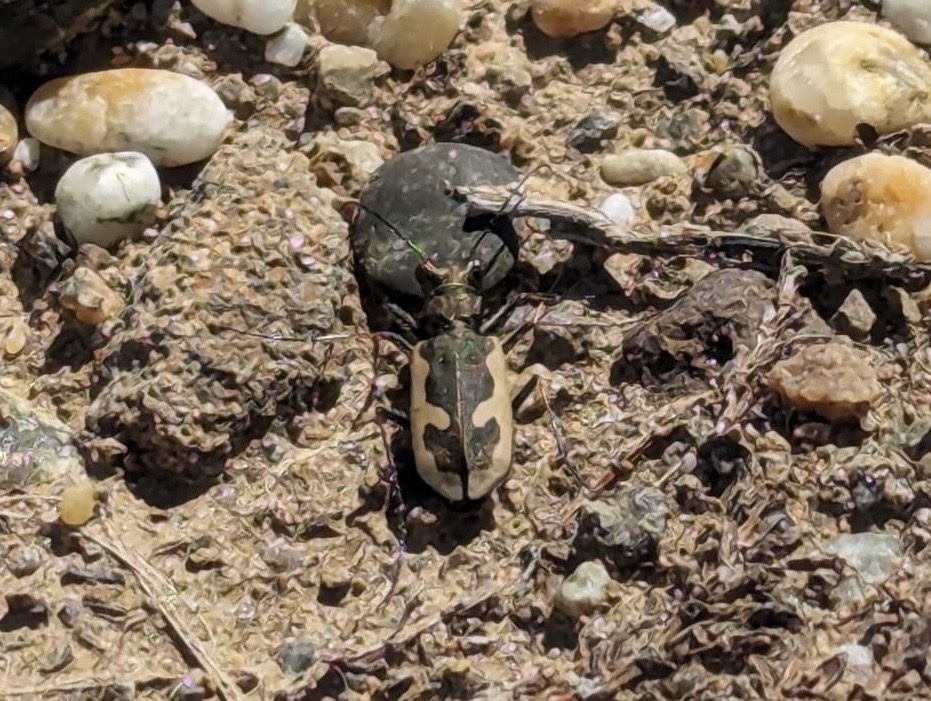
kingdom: Animalia
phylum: Arthropoda
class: Insecta
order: Coleoptera
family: Carabidae
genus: Neocicindela
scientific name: Neocicindela latecincta
